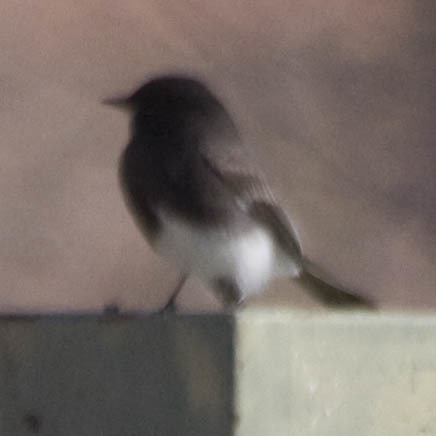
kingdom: Animalia
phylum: Chordata
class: Aves
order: Passeriformes
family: Tyrannidae
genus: Sayornis
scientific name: Sayornis nigricans
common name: Black phoebe
